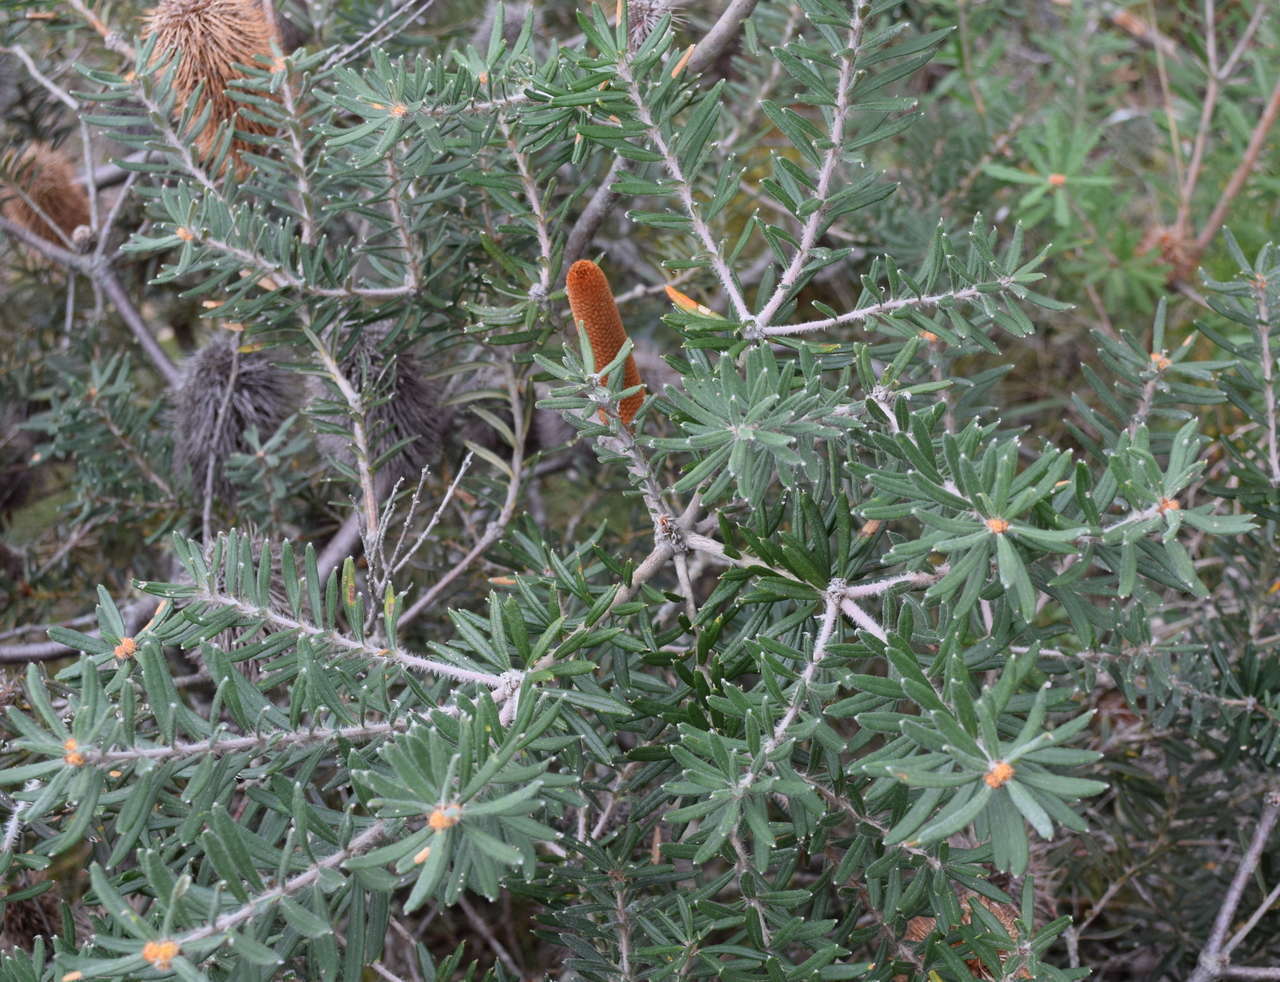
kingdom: Plantae
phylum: Tracheophyta
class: Magnoliopsida
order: Proteales
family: Proteaceae
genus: Banksia
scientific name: Banksia marginata
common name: Silver banksia
